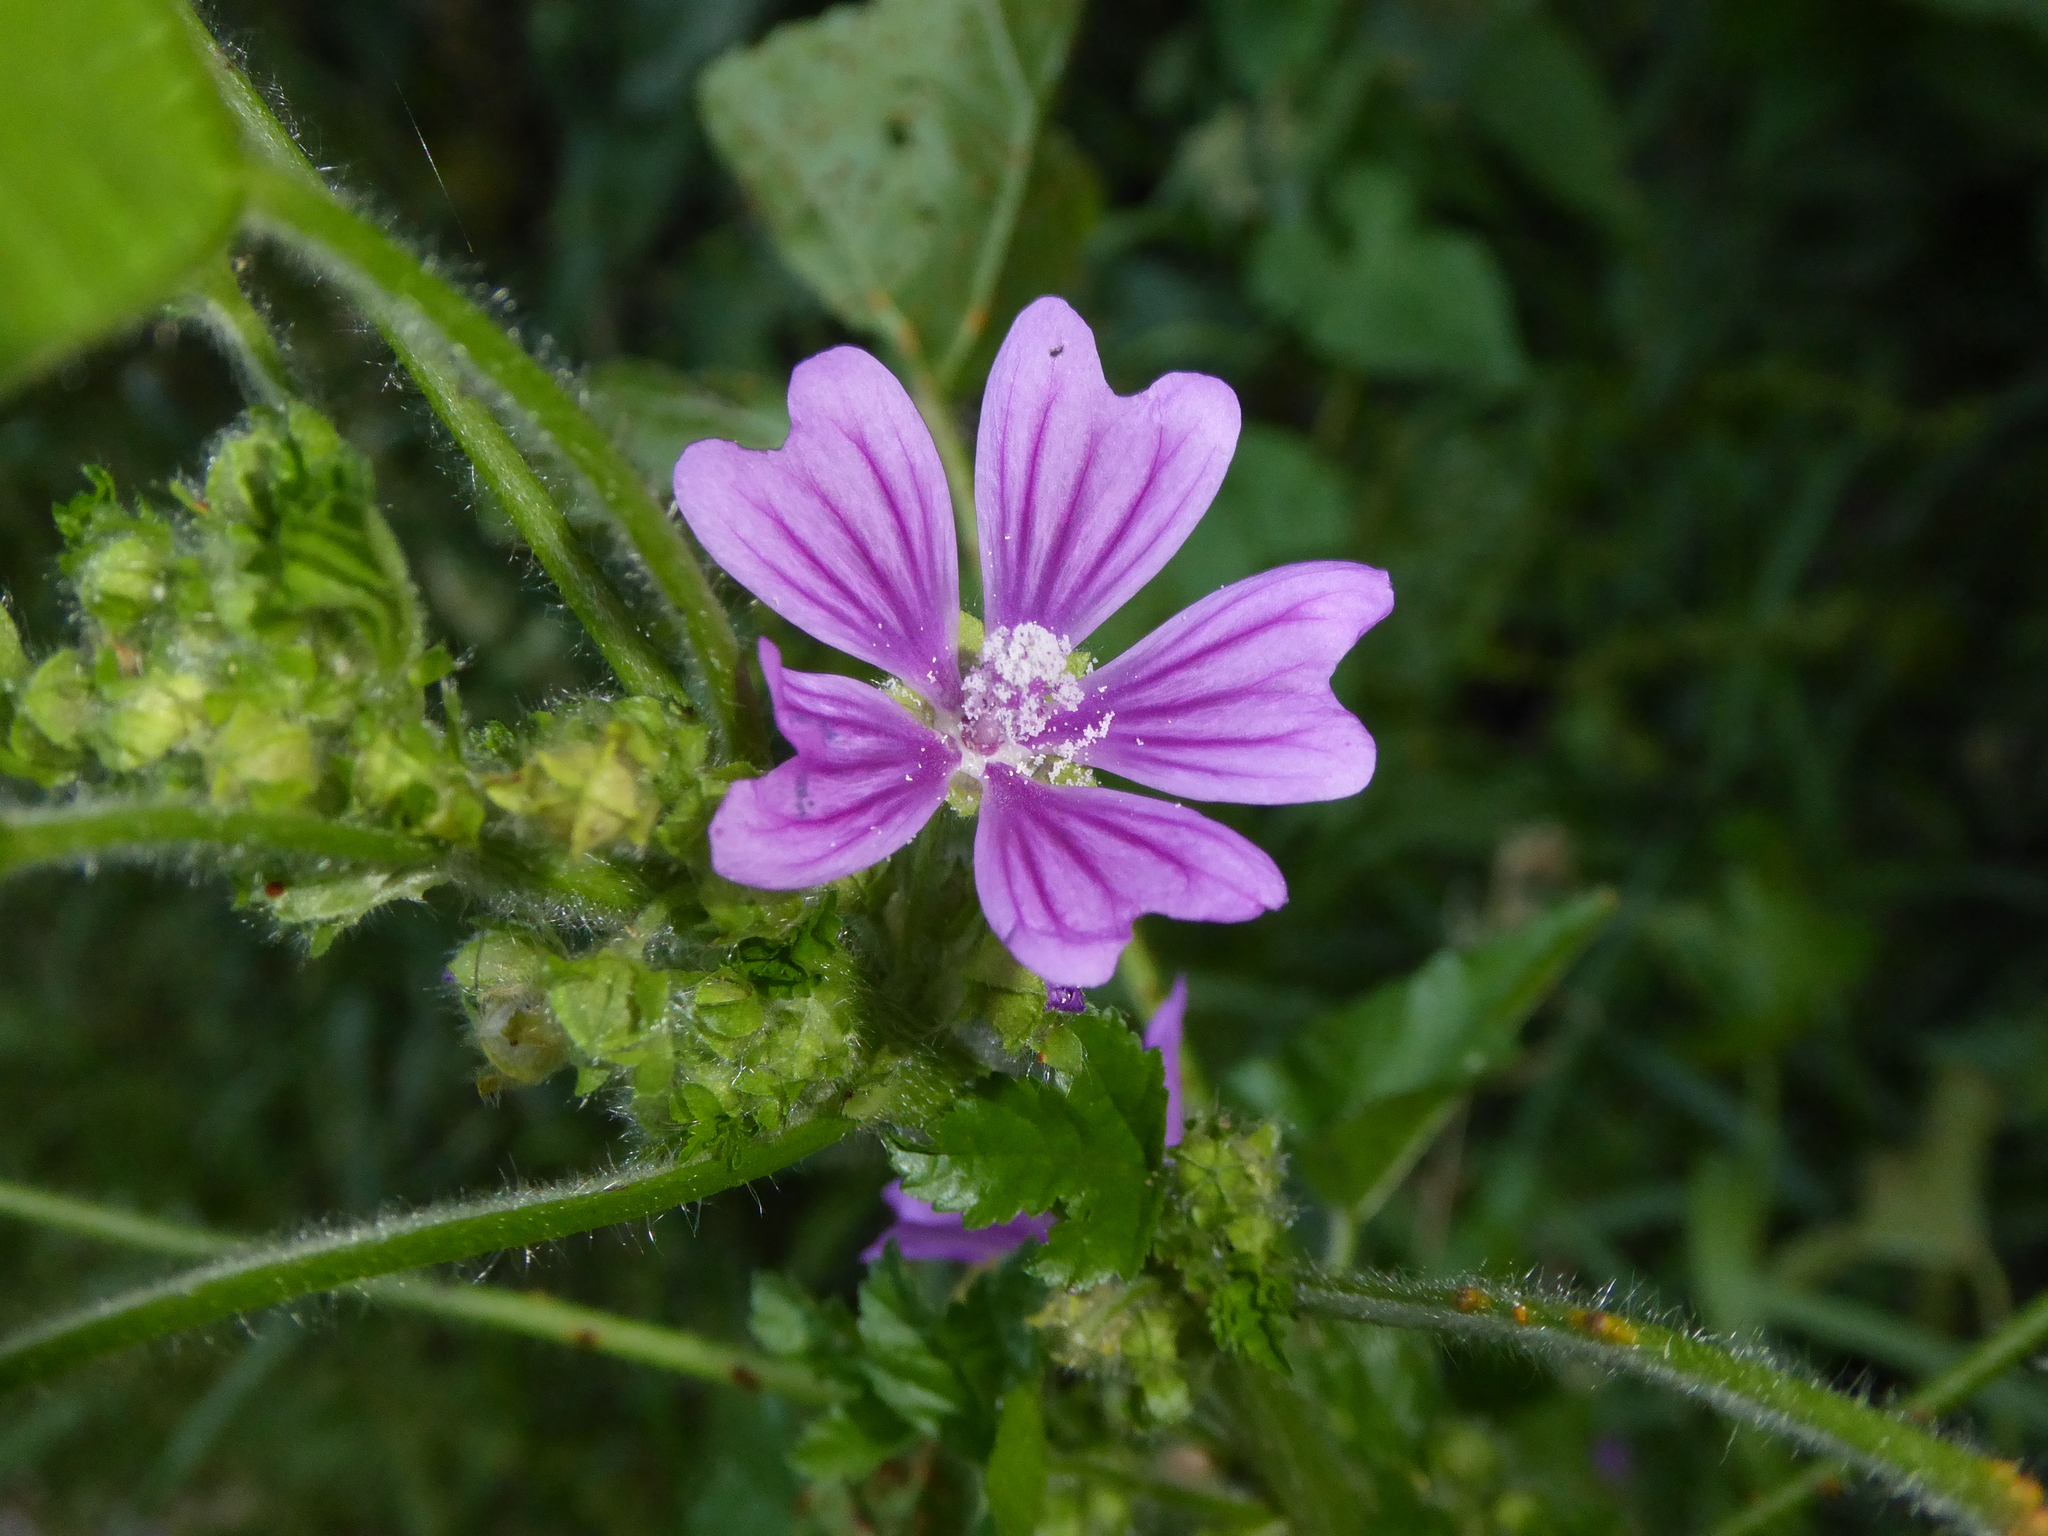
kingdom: Plantae
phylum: Tracheophyta
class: Magnoliopsida
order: Malvales
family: Malvaceae
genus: Malva
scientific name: Malva sylvestris
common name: Common mallow
